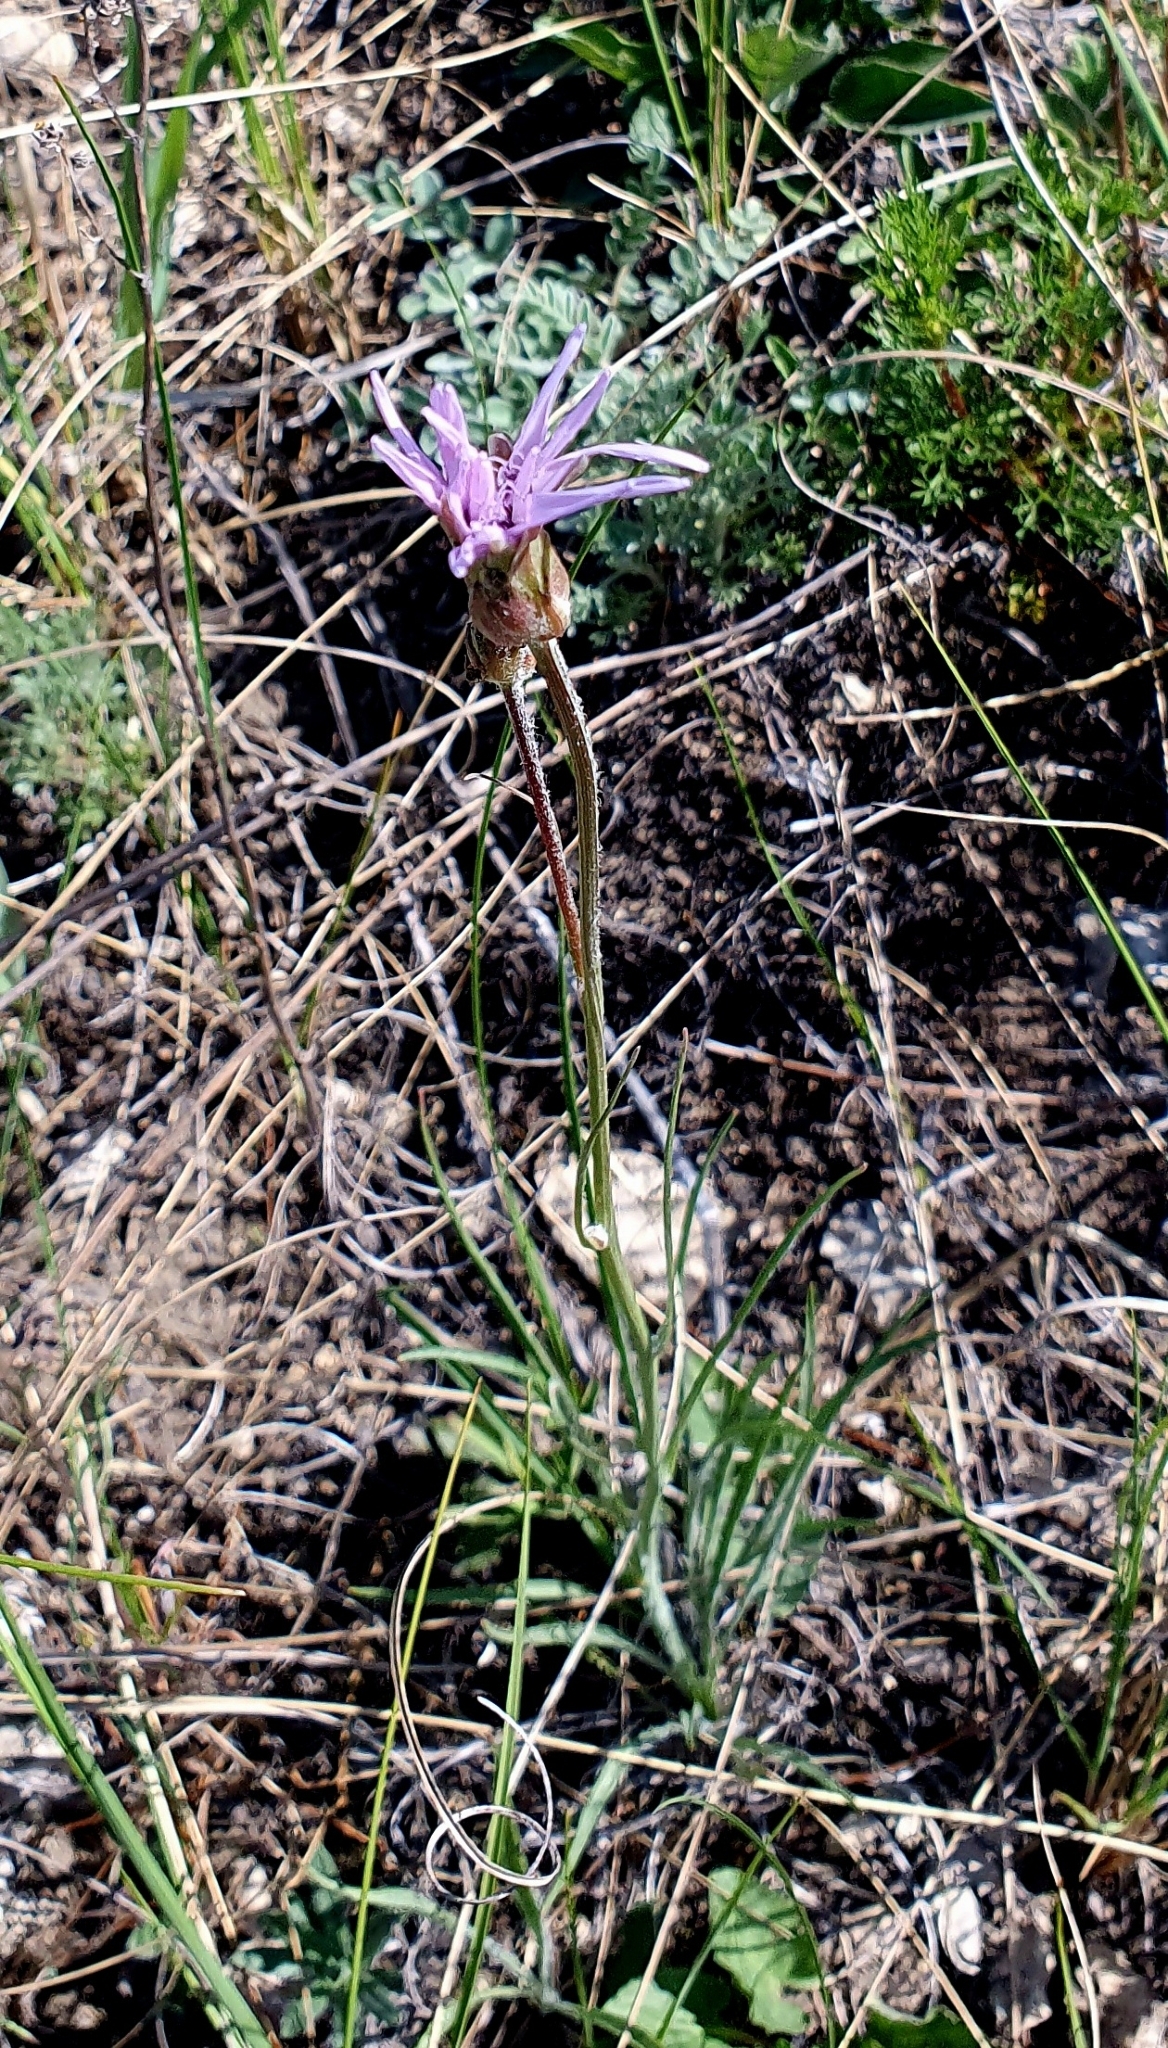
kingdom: Plantae
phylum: Tracheophyta
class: Magnoliopsida
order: Asterales
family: Asteraceae
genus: Scorzonera
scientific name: Scorzonera purpurea
